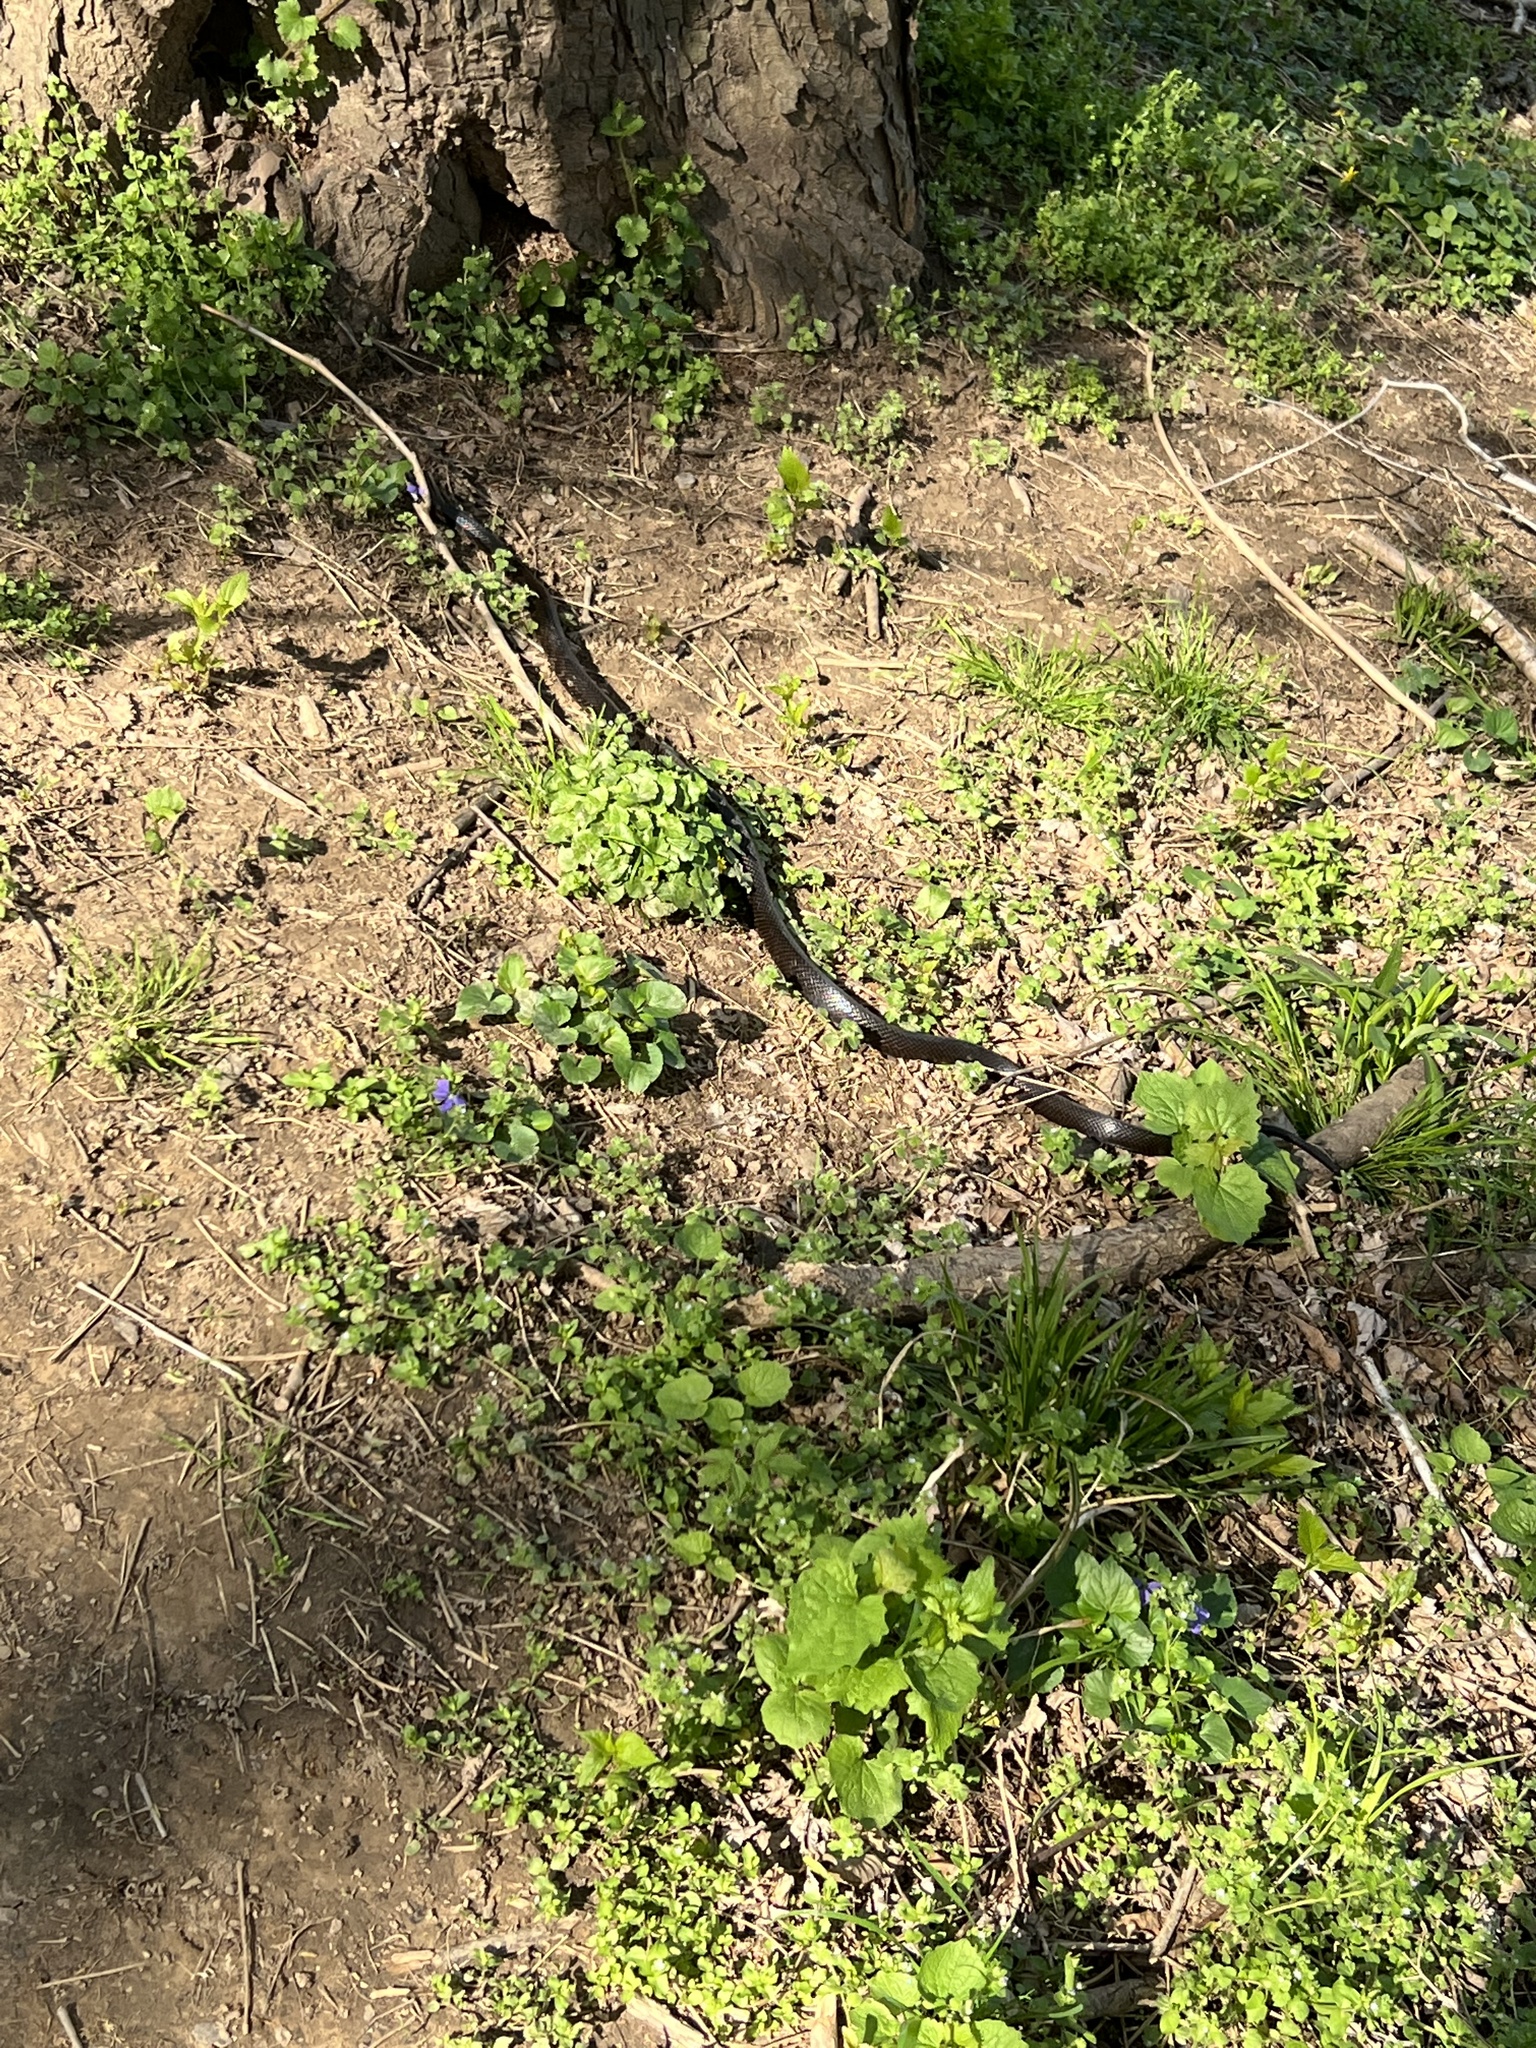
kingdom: Animalia
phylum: Chordata
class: Squamata
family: Colubridae
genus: Pantherophis
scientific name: Pantherophis alleghaniensis
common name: Eastern rat snake
